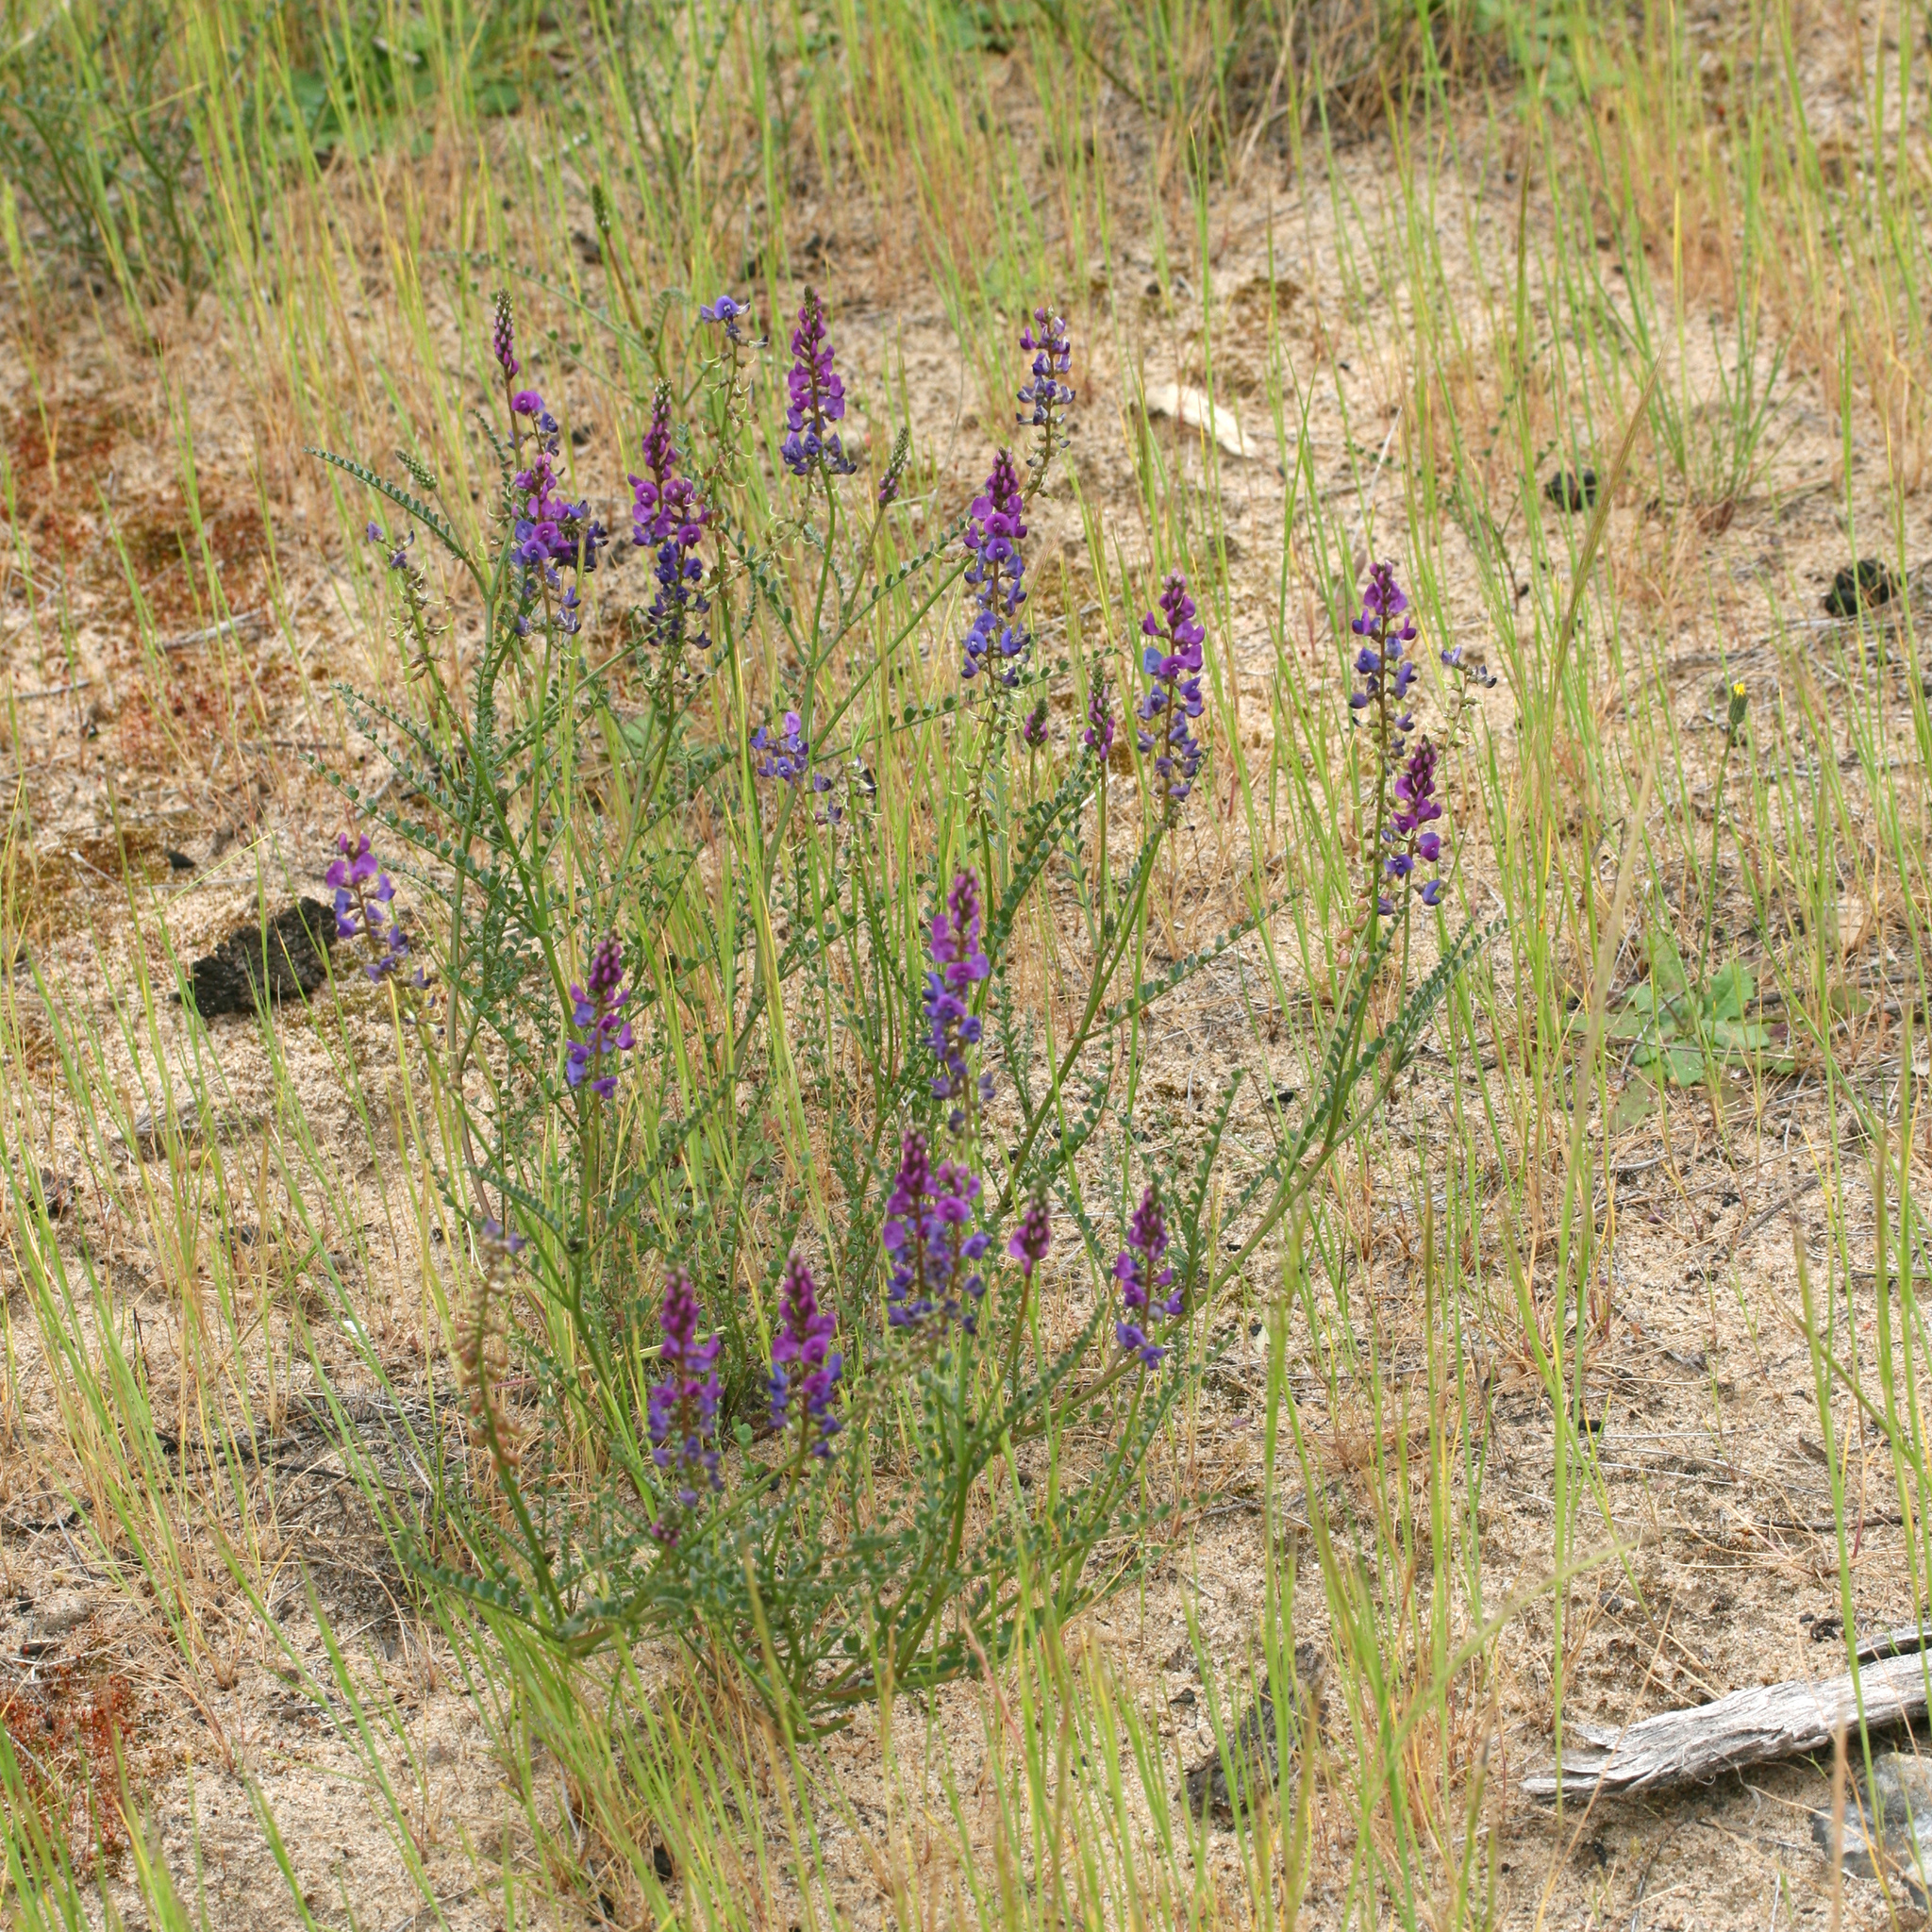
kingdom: Plantae
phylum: Tracheophyta
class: Magnoliopsida
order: Fabales
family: Fabaceae
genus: Swainsona
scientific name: Swainsona microphylla
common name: Small-leaf swainsona-pea
